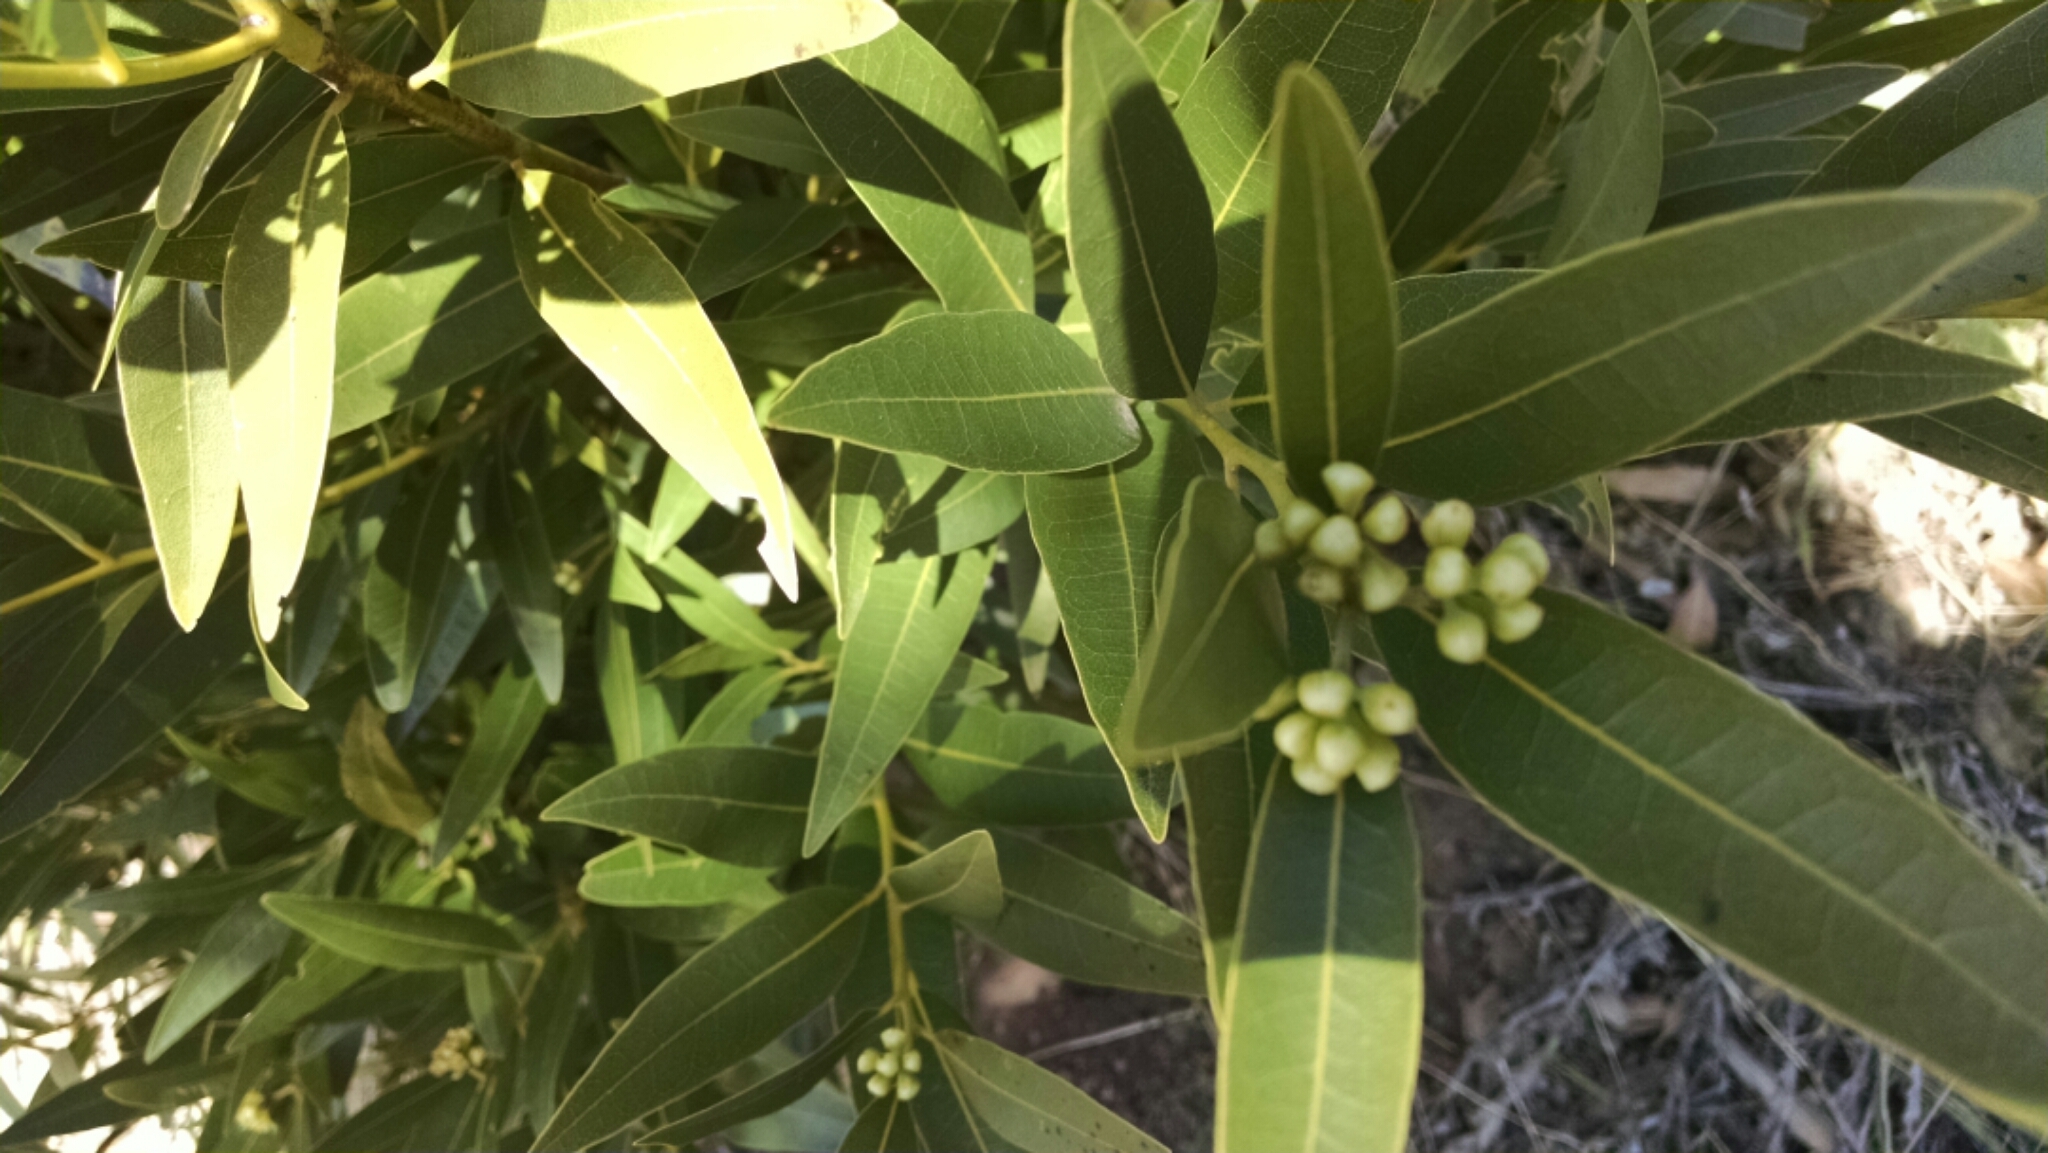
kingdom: Plantae
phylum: Tracheophyta
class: Magnoliopsida
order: Laurales
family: Lauraceae
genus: Umbellularia
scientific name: Umbellularia californica
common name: California bay
